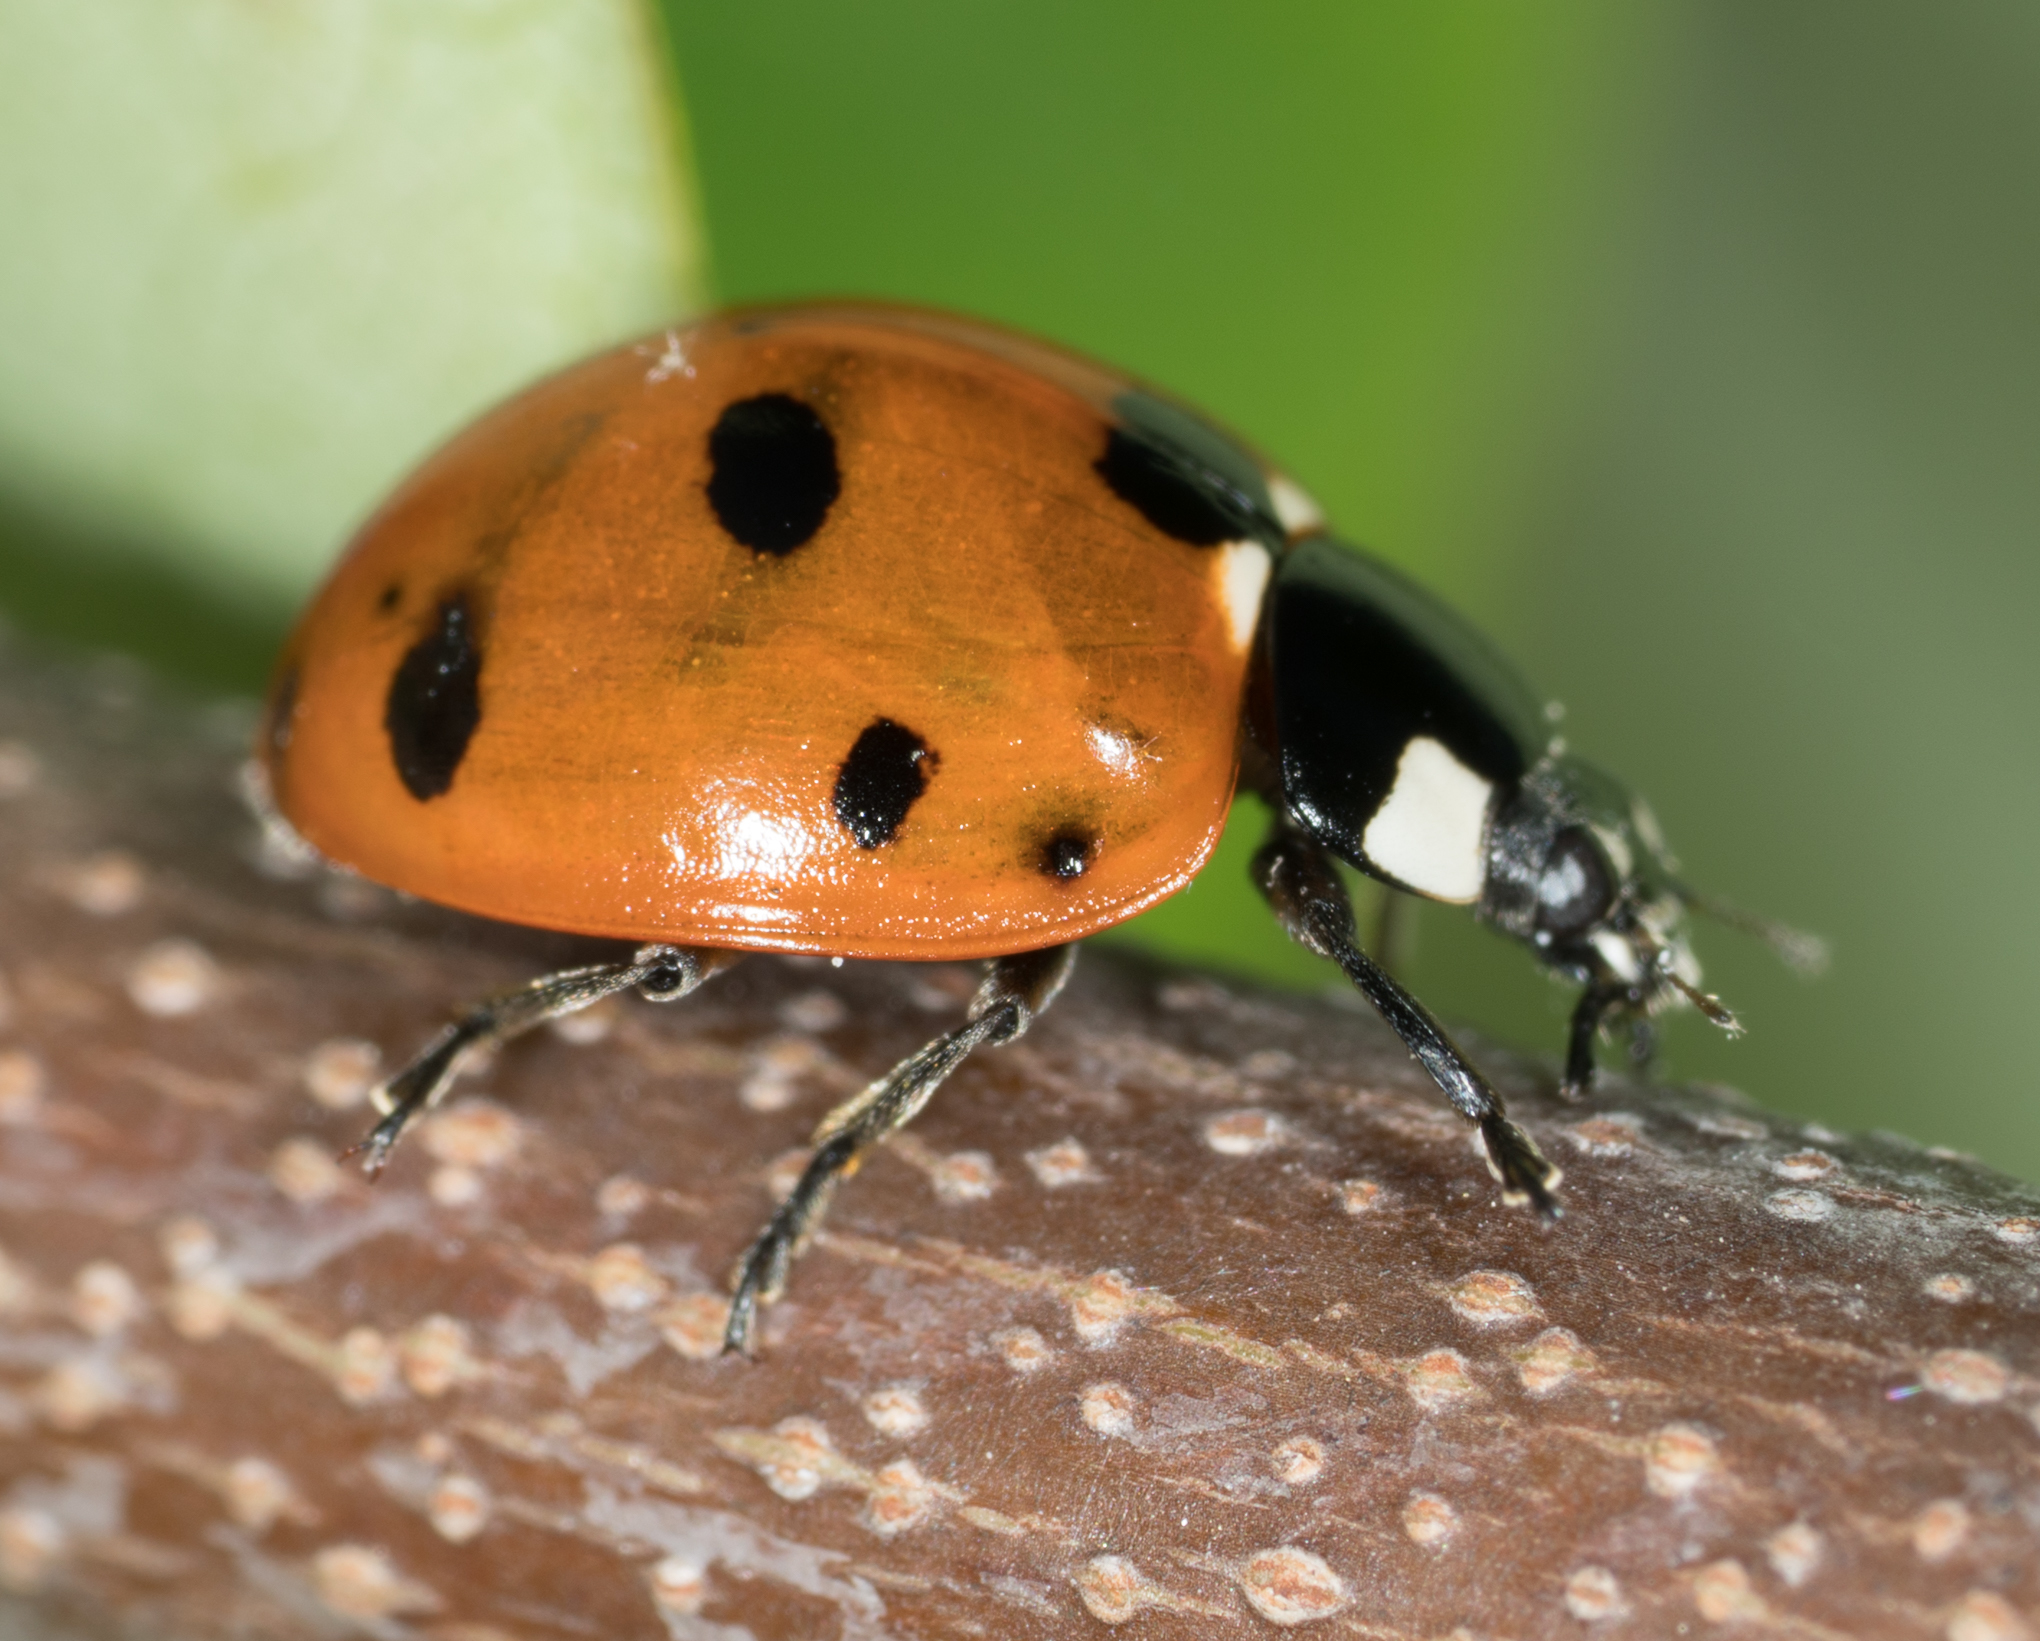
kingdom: Animalia
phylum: Arthropoda
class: Insecta
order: Coleoptera
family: Coccinellidae
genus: Coccinella
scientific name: Coccinella septempunctata
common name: Sevenspotted lady beetle
